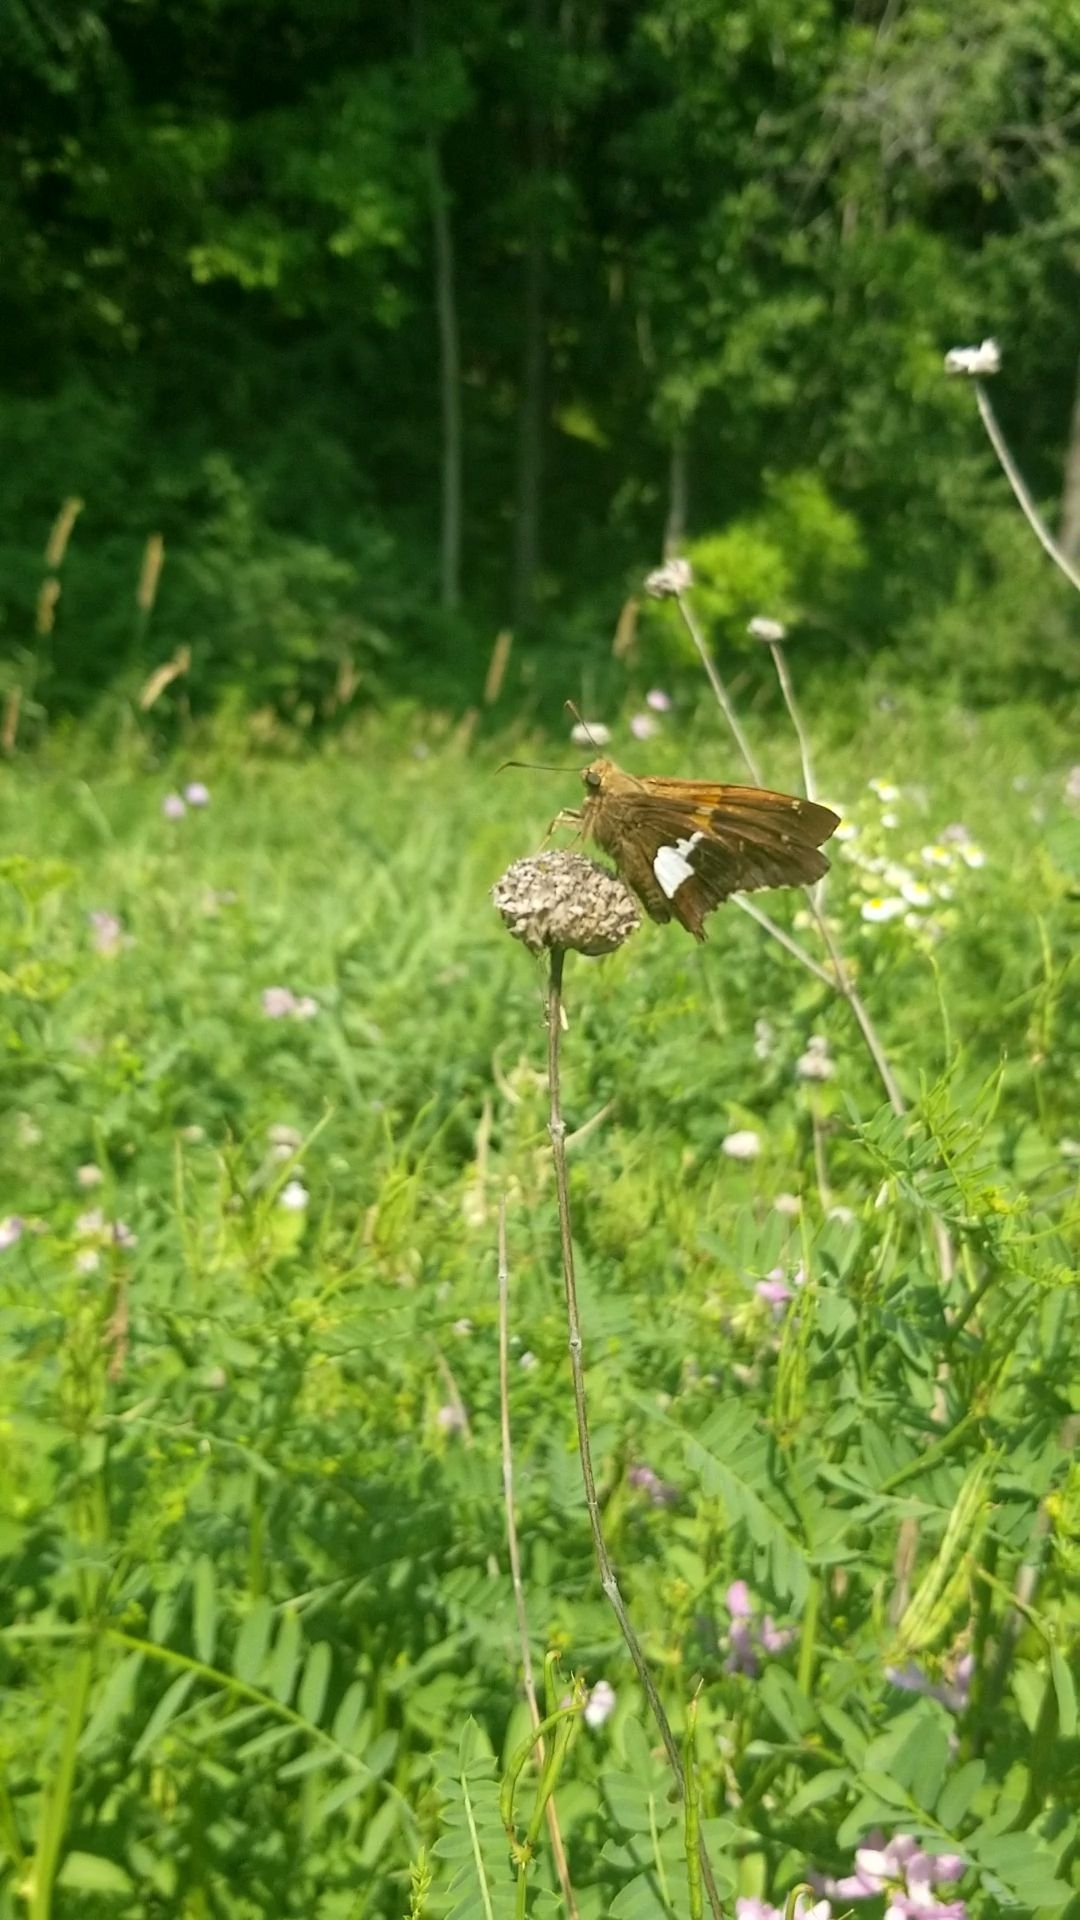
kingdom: Animalia
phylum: Arthropoda
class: Insecta
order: Lepidoptera
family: Hesperiidae
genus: Epargyreus
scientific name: Epargyreus clarus
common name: Silver-spotted skipper
